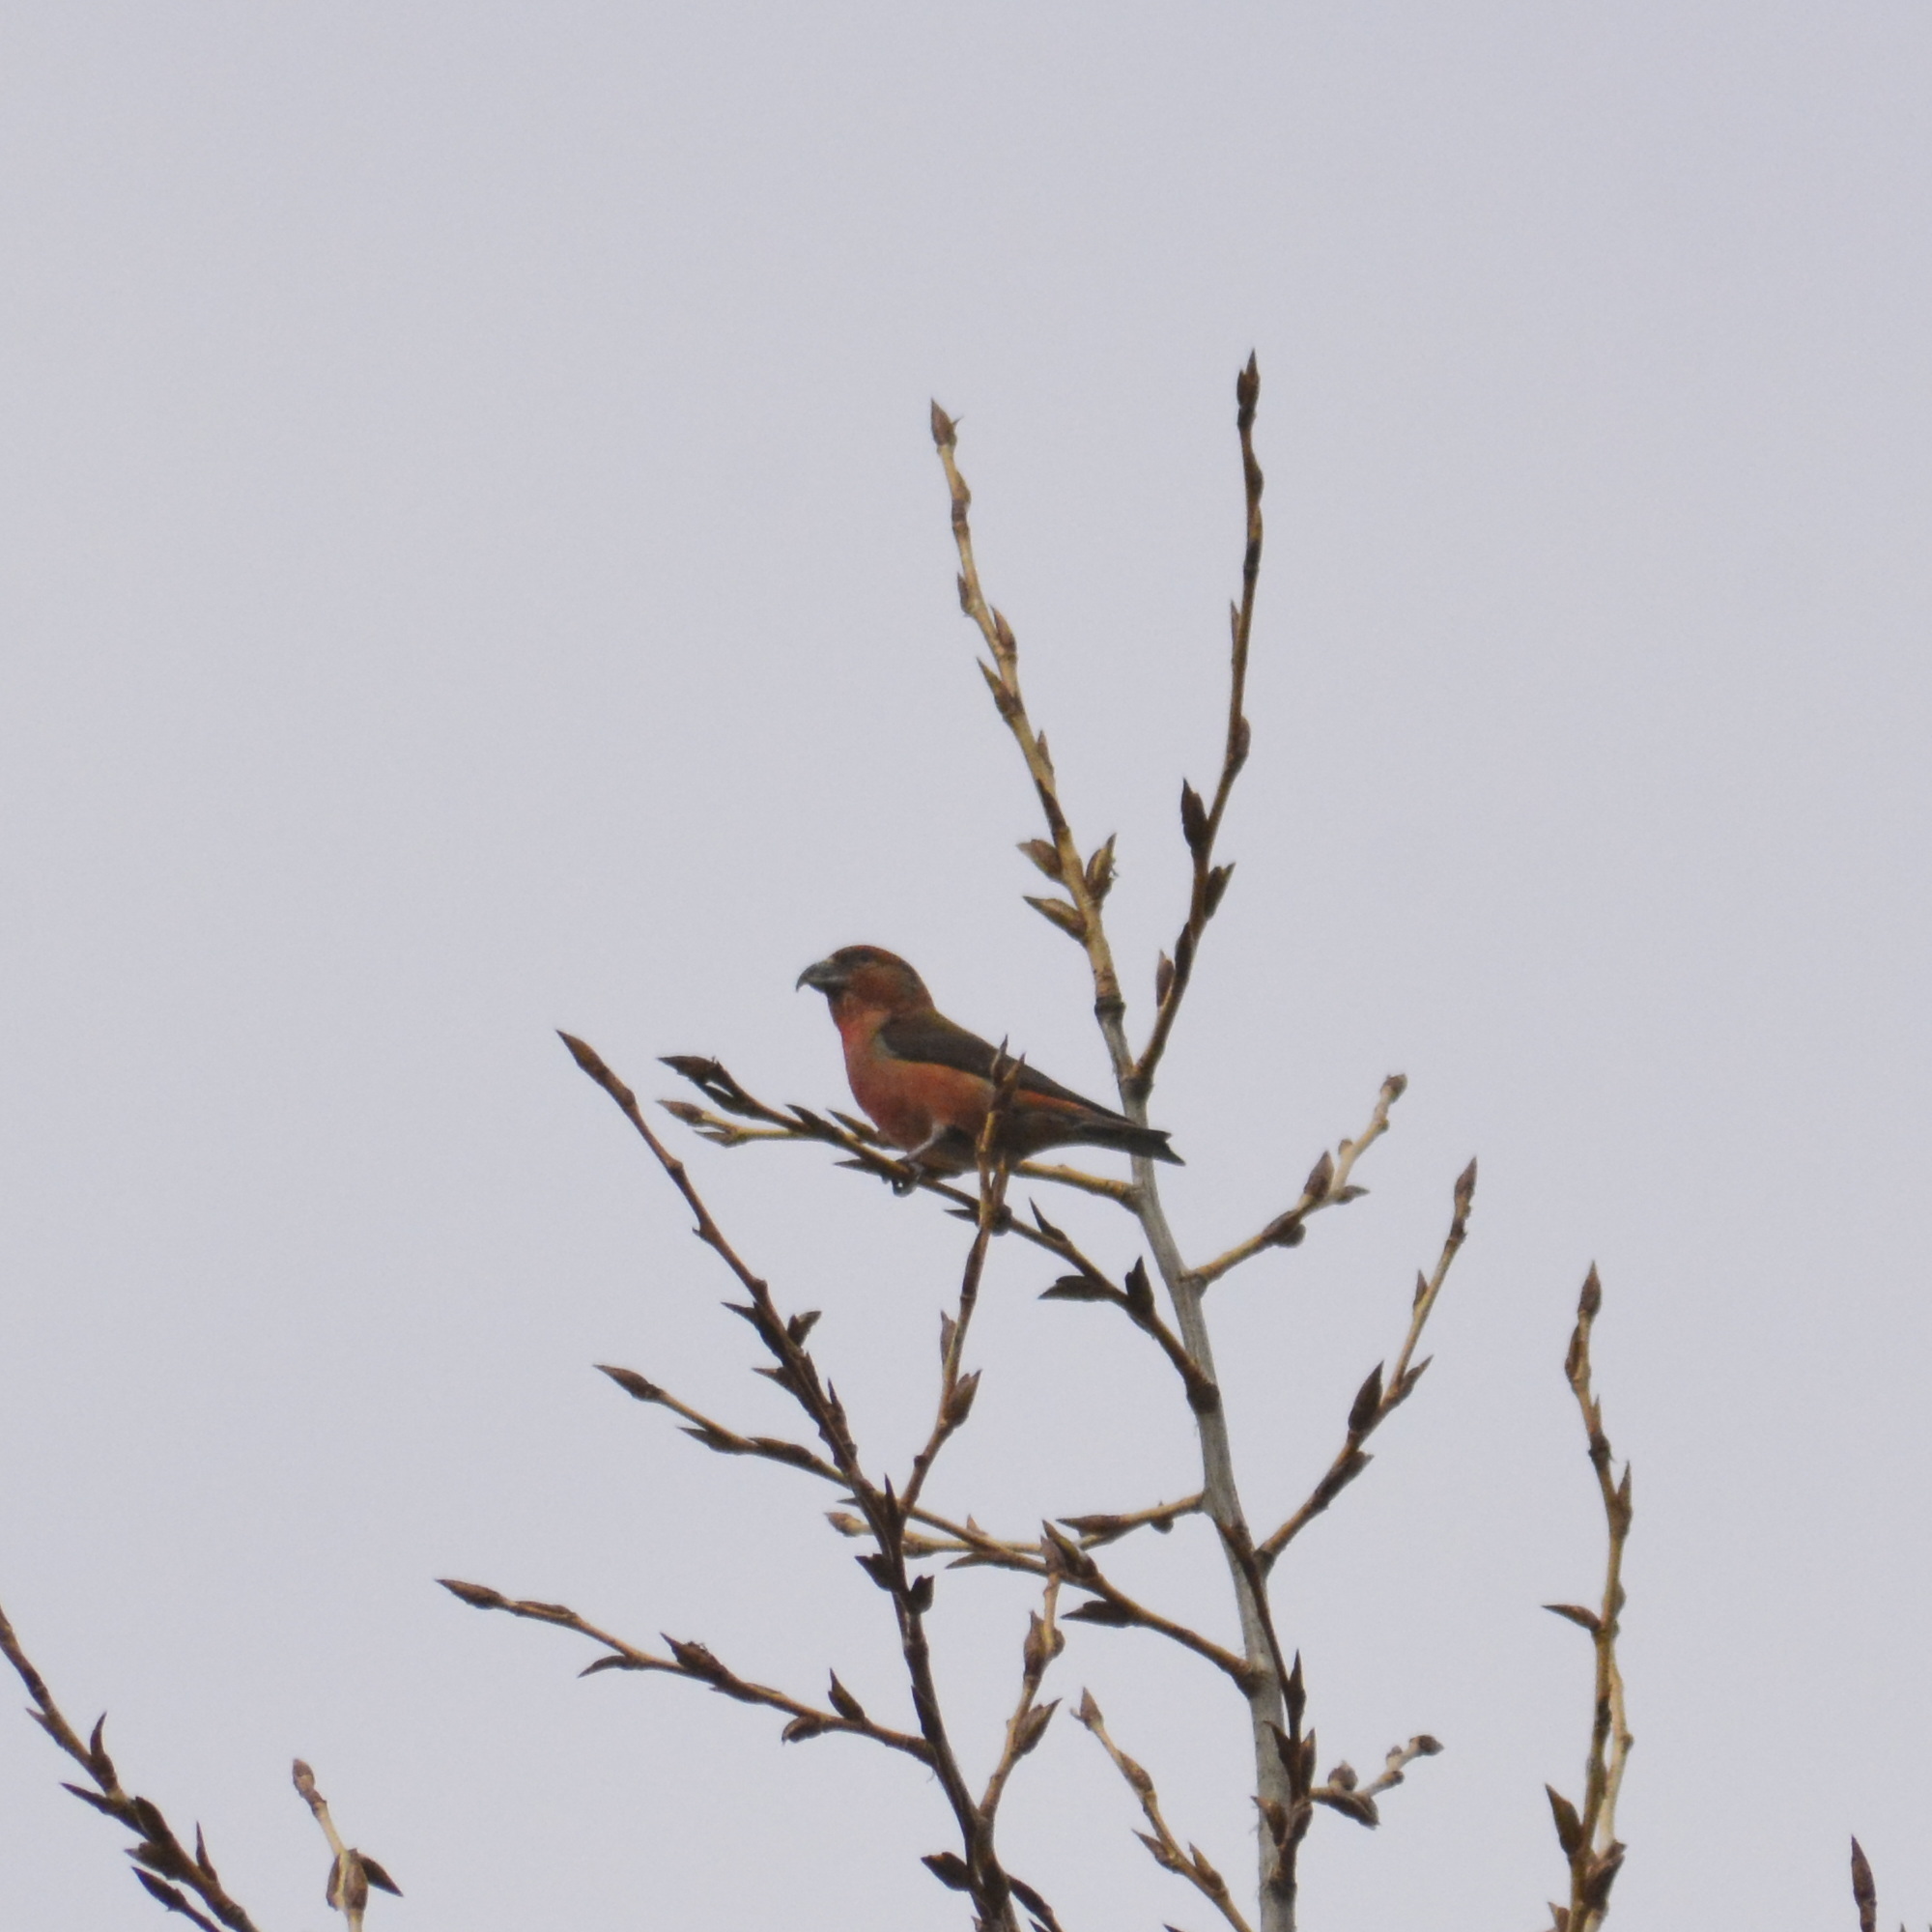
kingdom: Animalia
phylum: Chordata
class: Aves
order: Passeriformes
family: Fringillidae
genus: Loxia
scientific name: Loxia curvirostra
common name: Red crossbill
